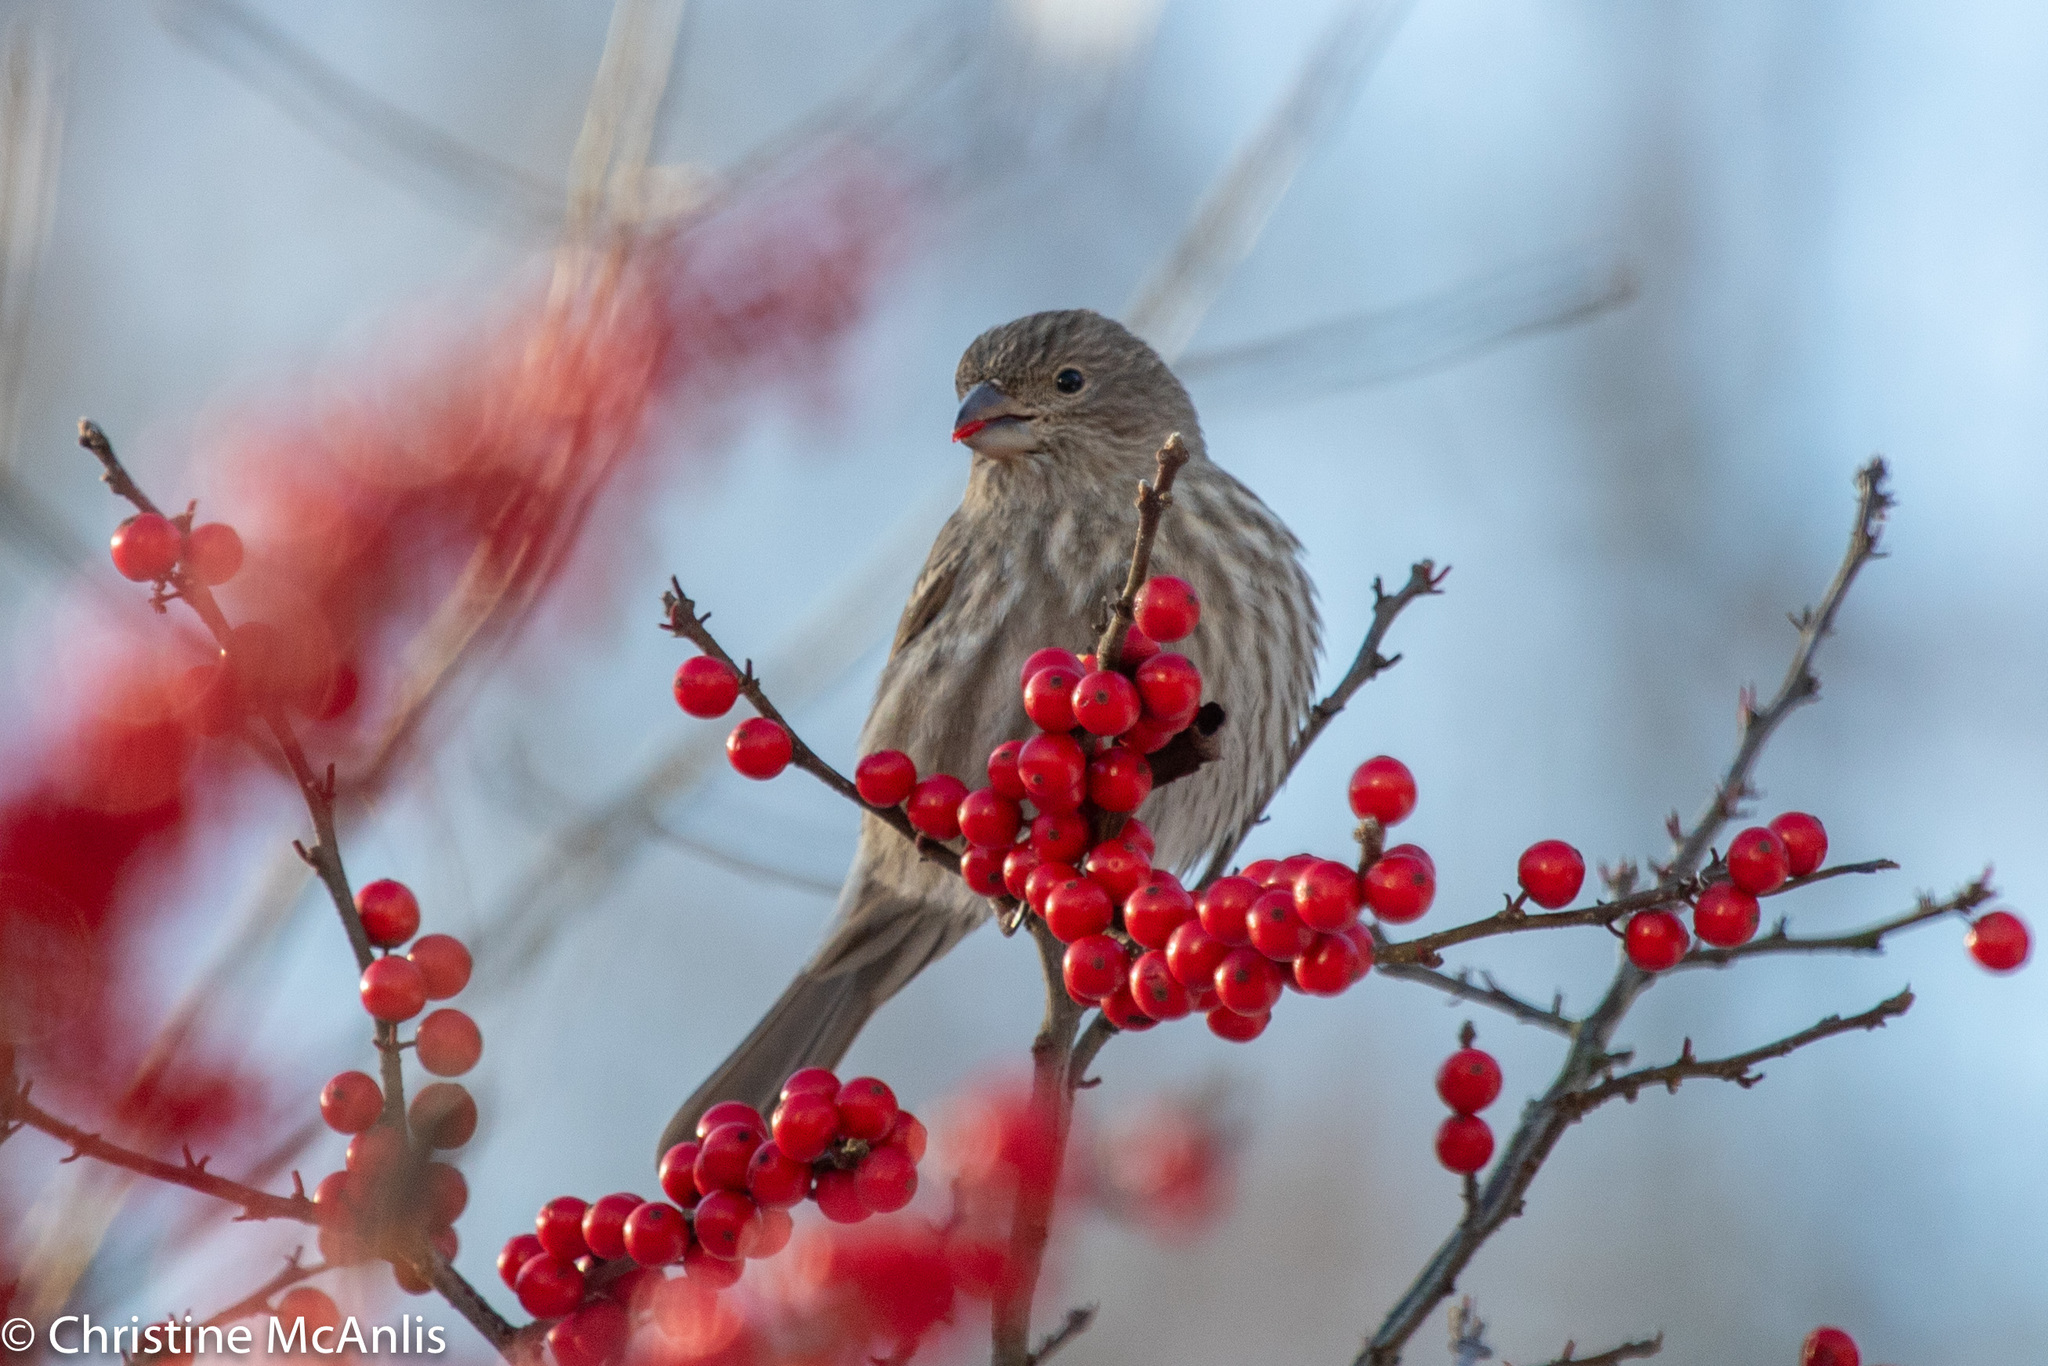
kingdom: Animalia
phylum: Chordata
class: Aves
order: Passeriformes
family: Fringillidae
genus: Haemorhous
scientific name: Haemorhous mexicanus
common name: House finch
